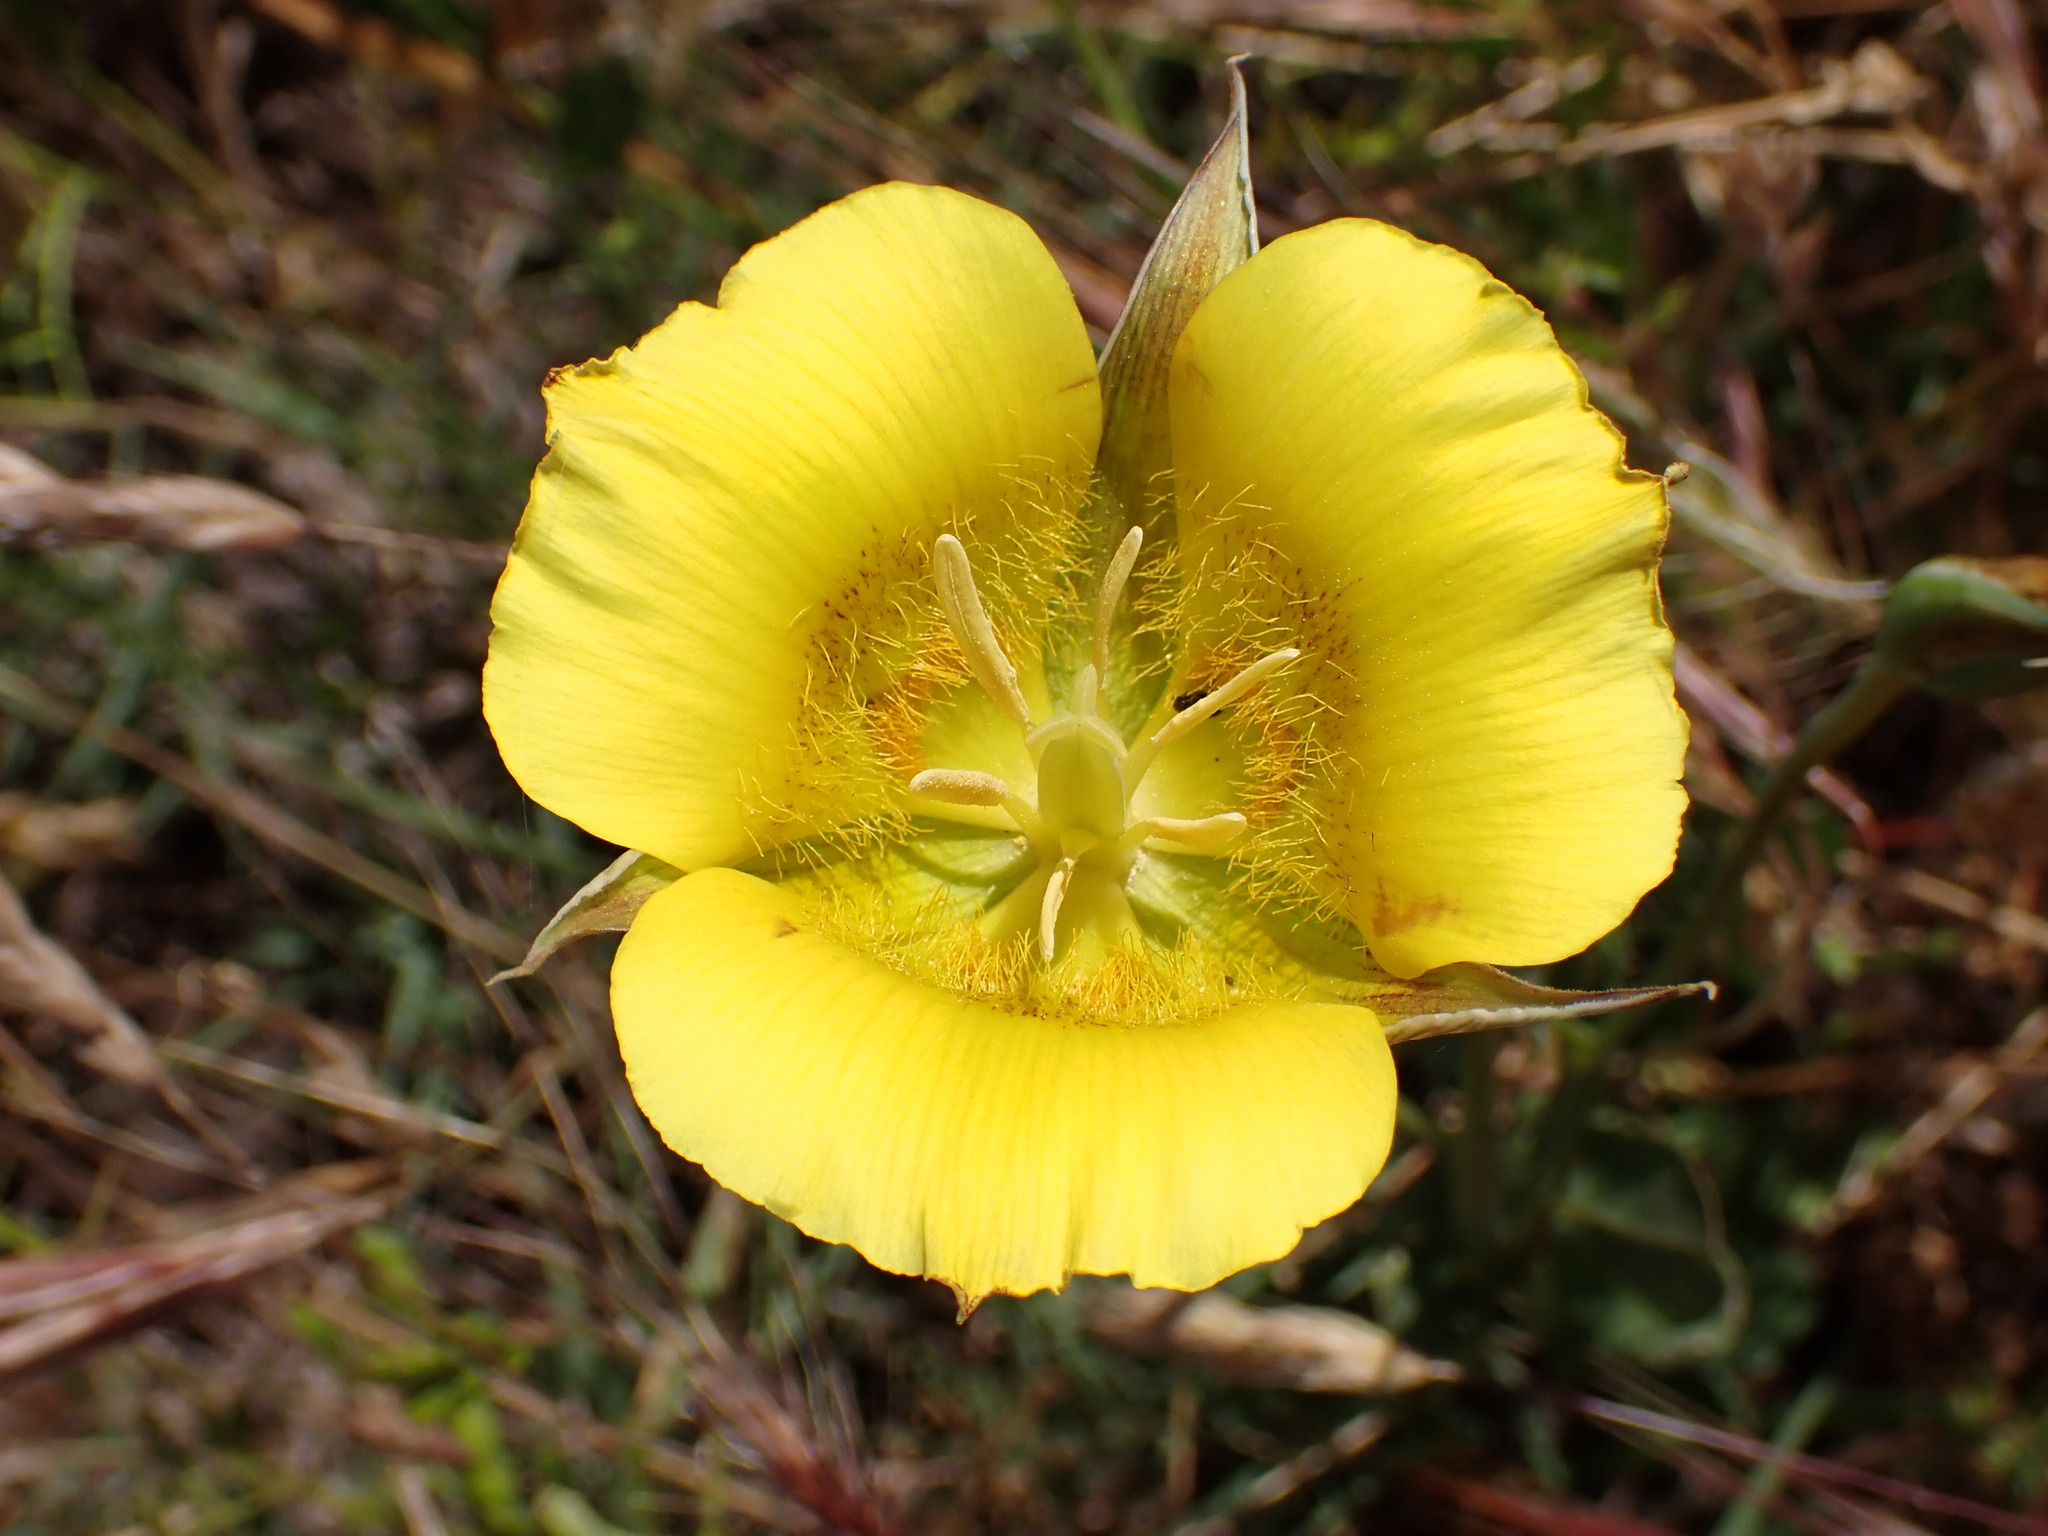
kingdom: Plantae
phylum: Tracheophyta
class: Liliopsida
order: Liliales
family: Liliaceae
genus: Calochortus
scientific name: Calochortus luteus
